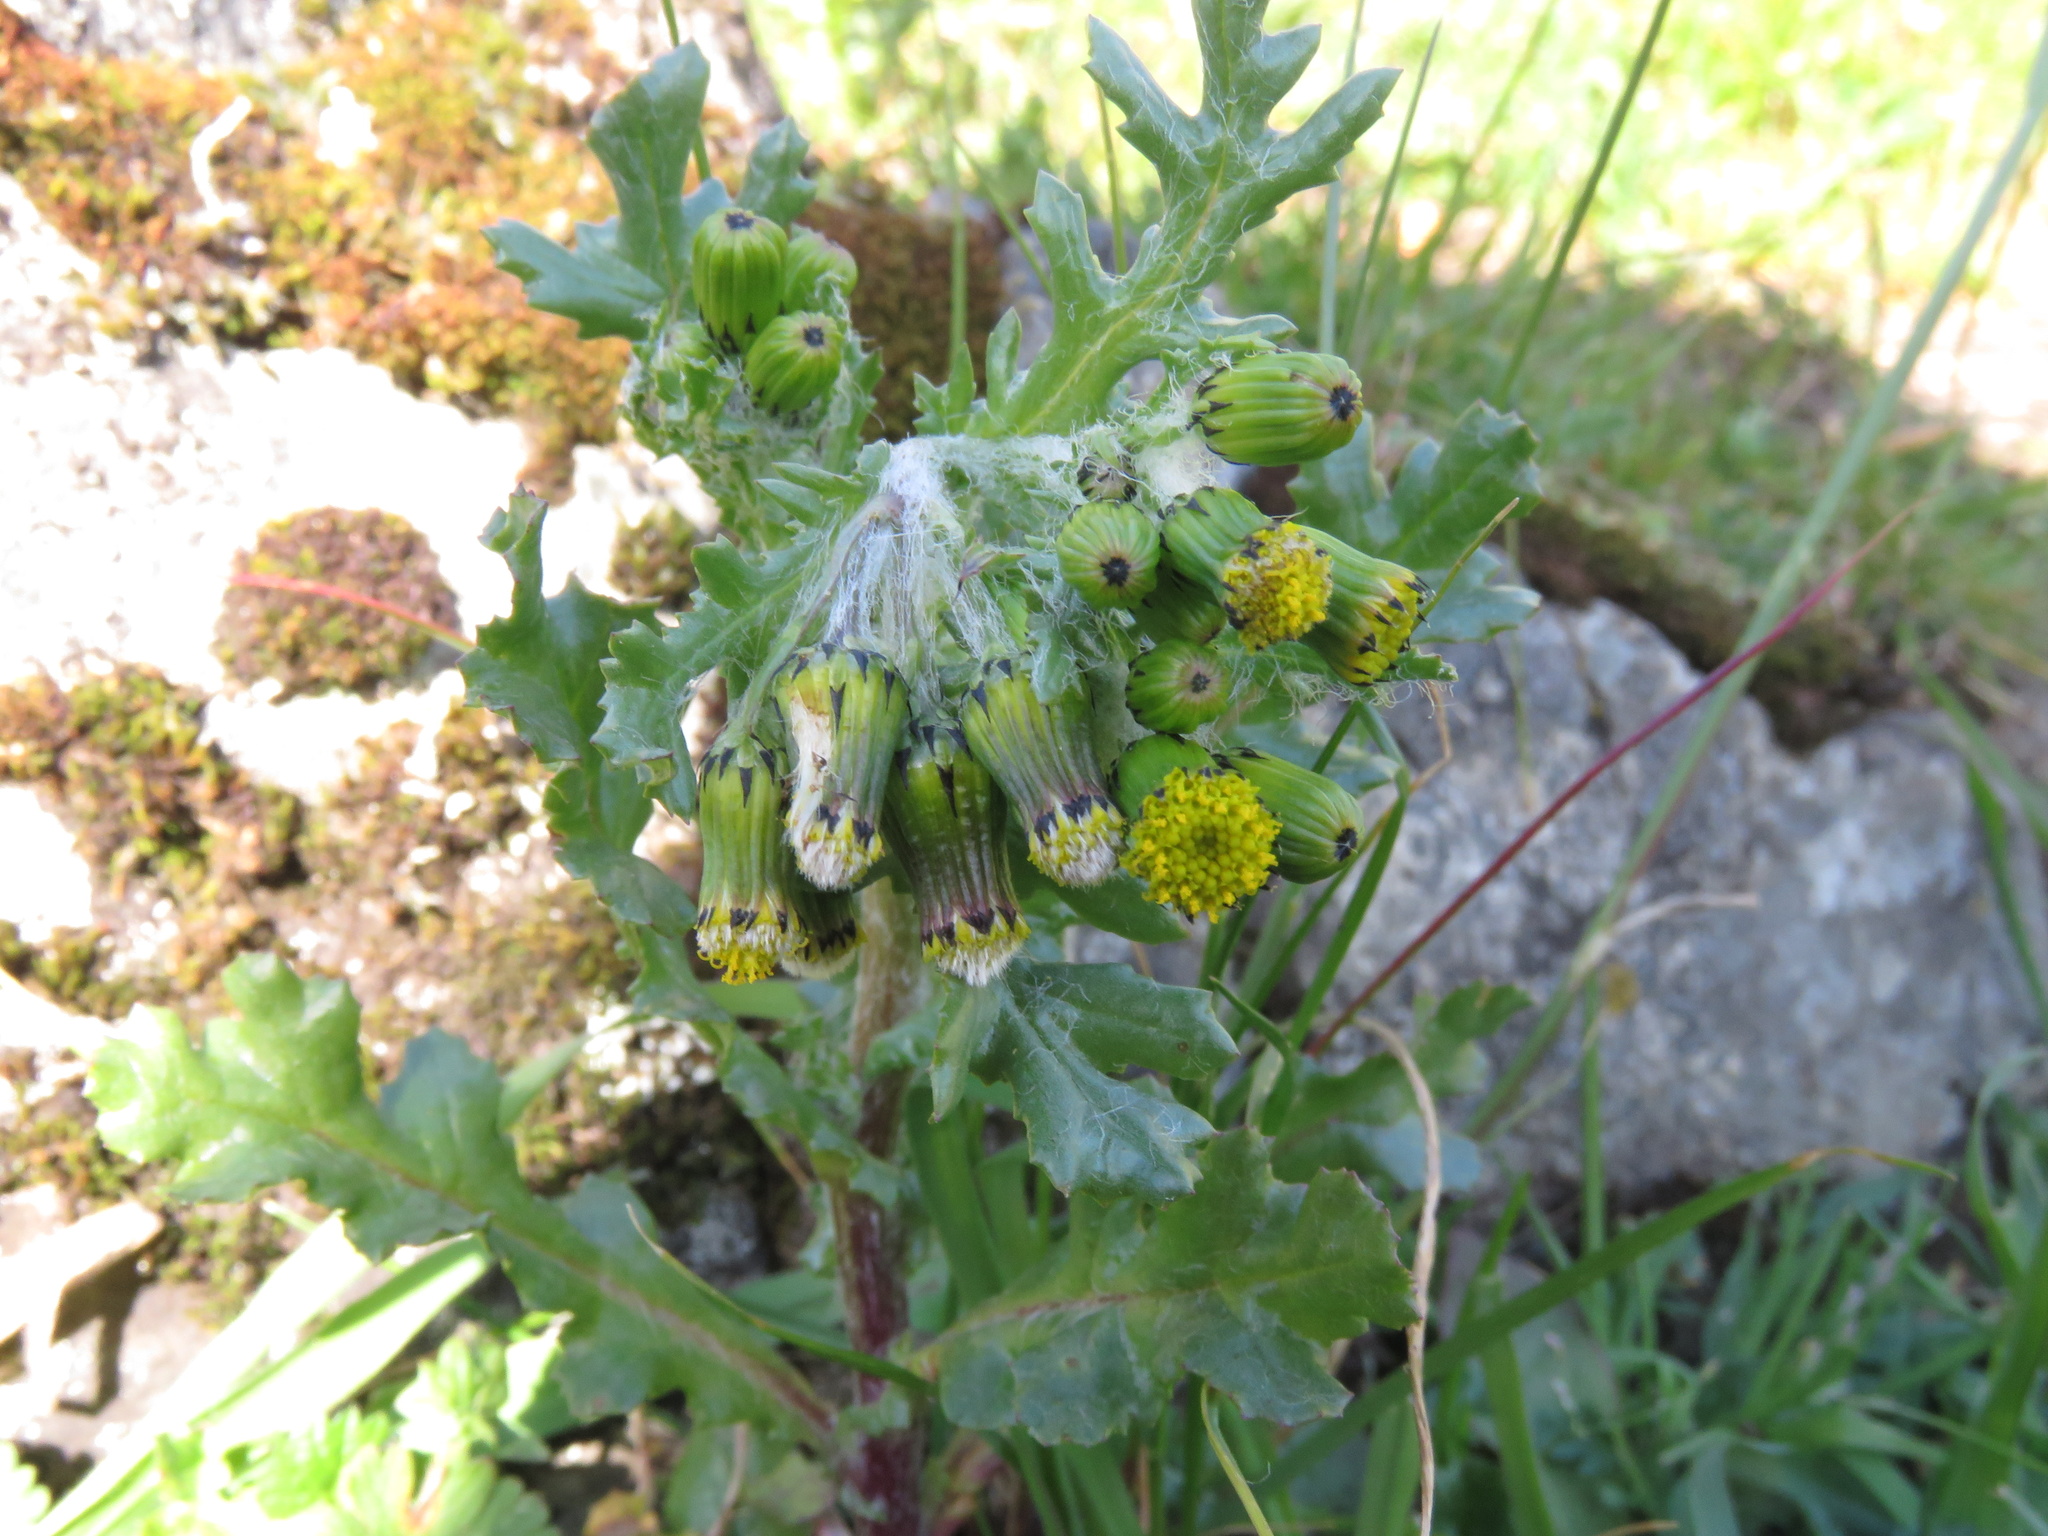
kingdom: Plantae
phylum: Tracheophyta
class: Magnoliopsida
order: Asterales
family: Asteraceae
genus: Senecio
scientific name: Senecio vulgaris
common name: Old-man-in-the-spring
